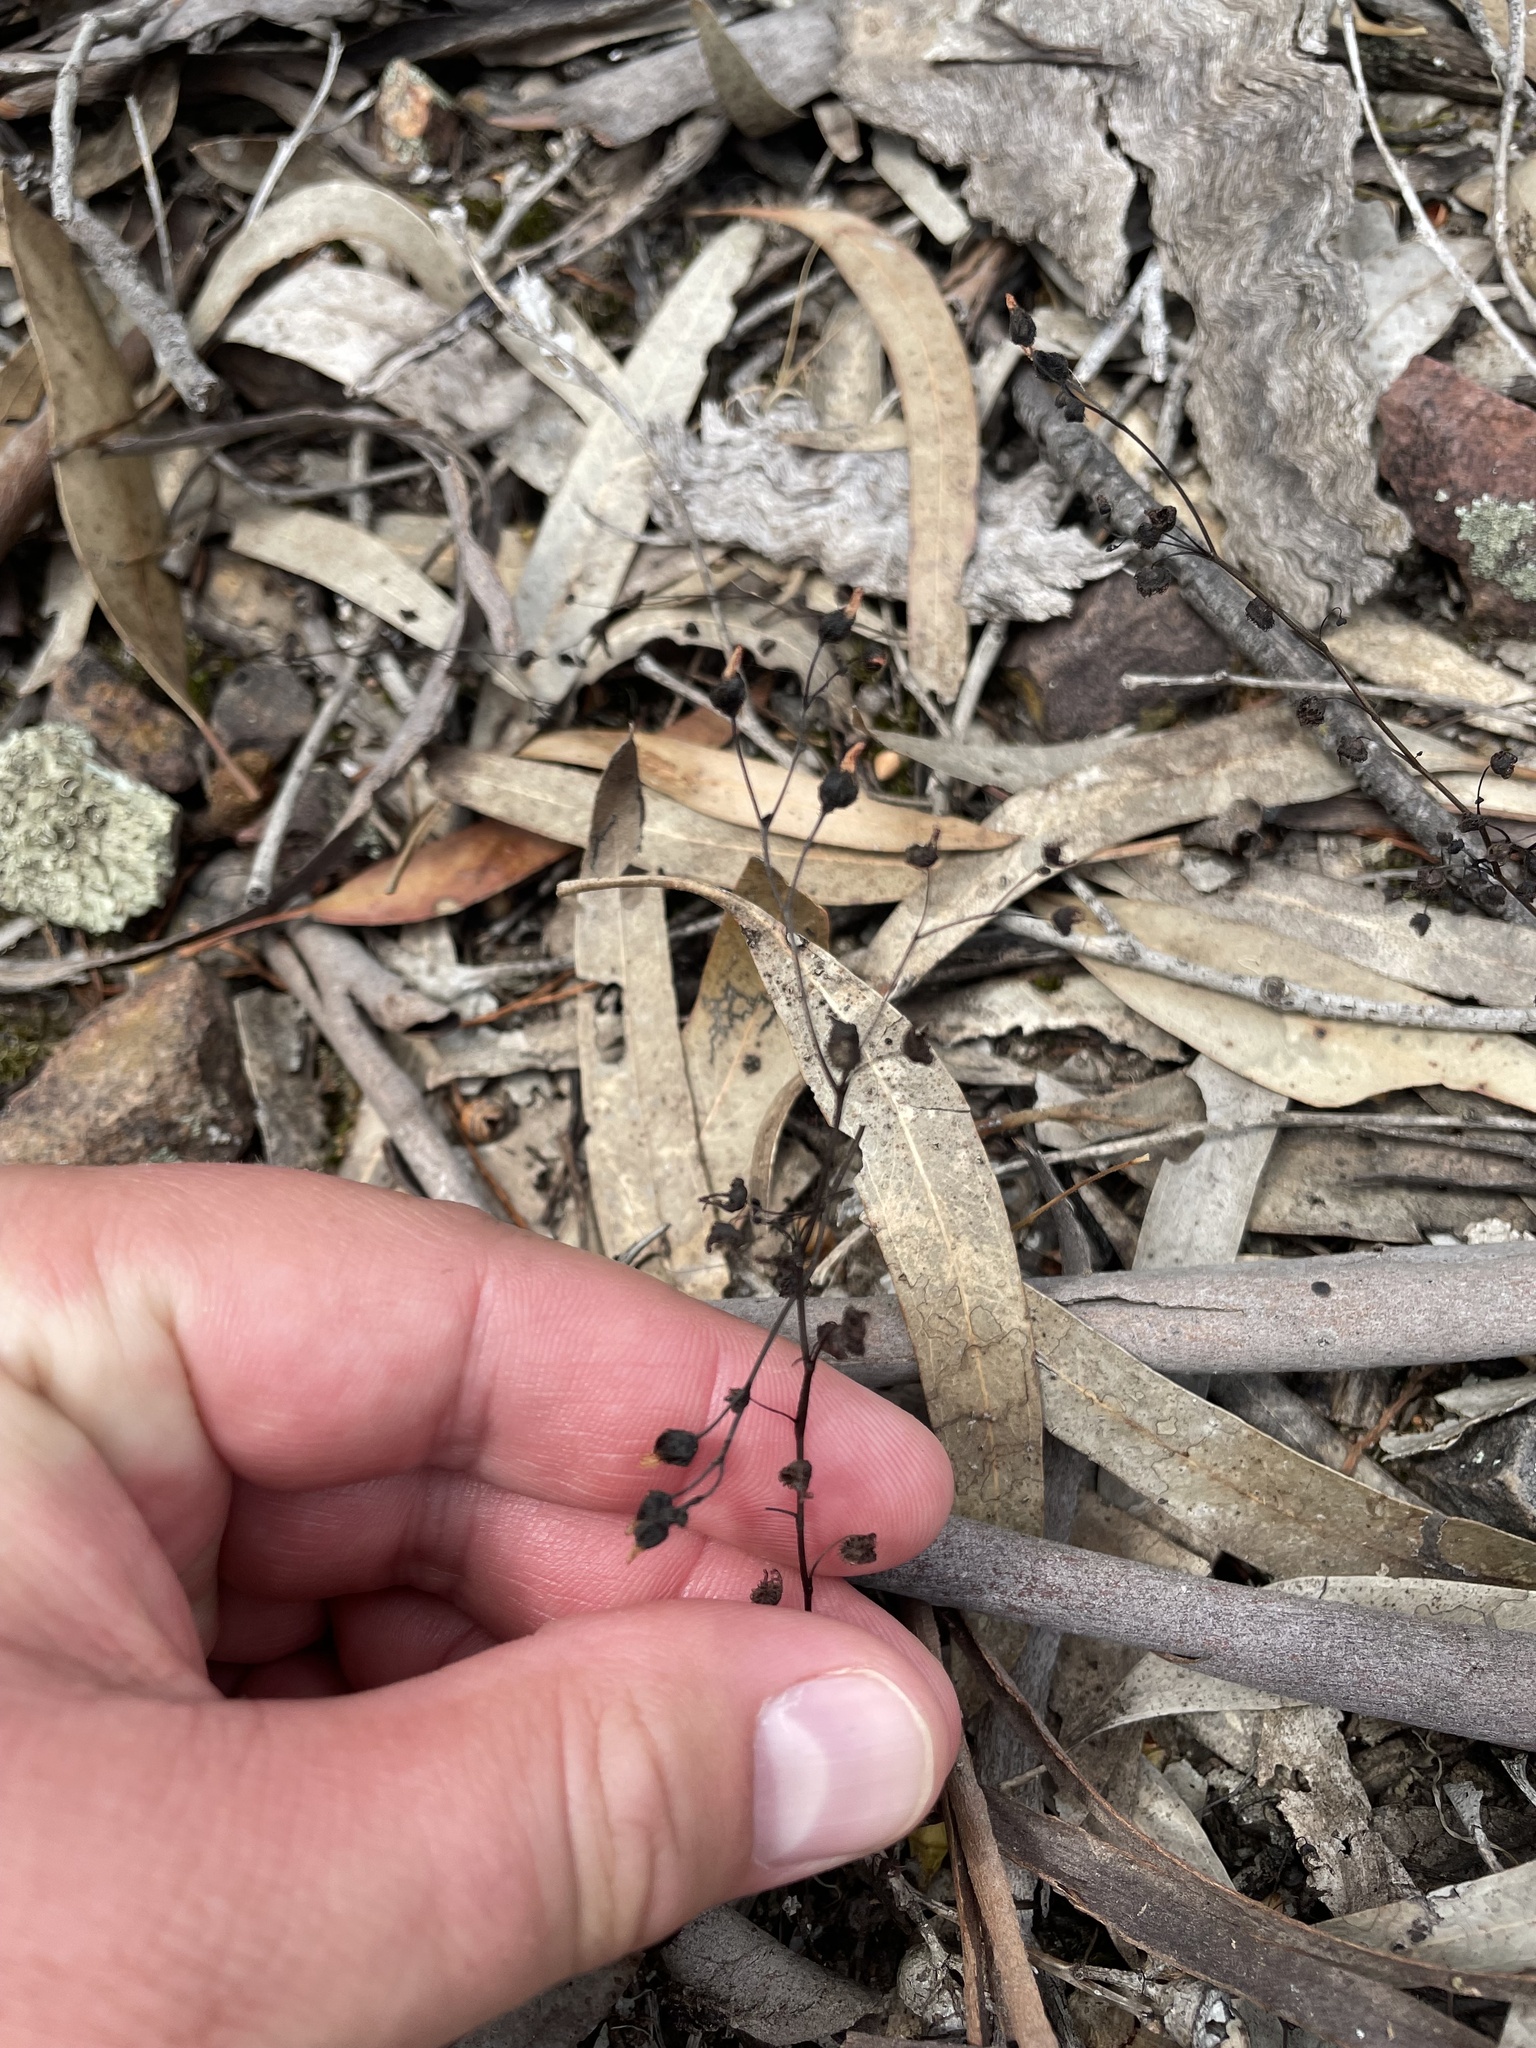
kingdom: Plantae
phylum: Tracheophyta
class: Magnoliopsida
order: Caryophyllales
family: Droseraceae
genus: Drosera
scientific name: Drosera gunniana
